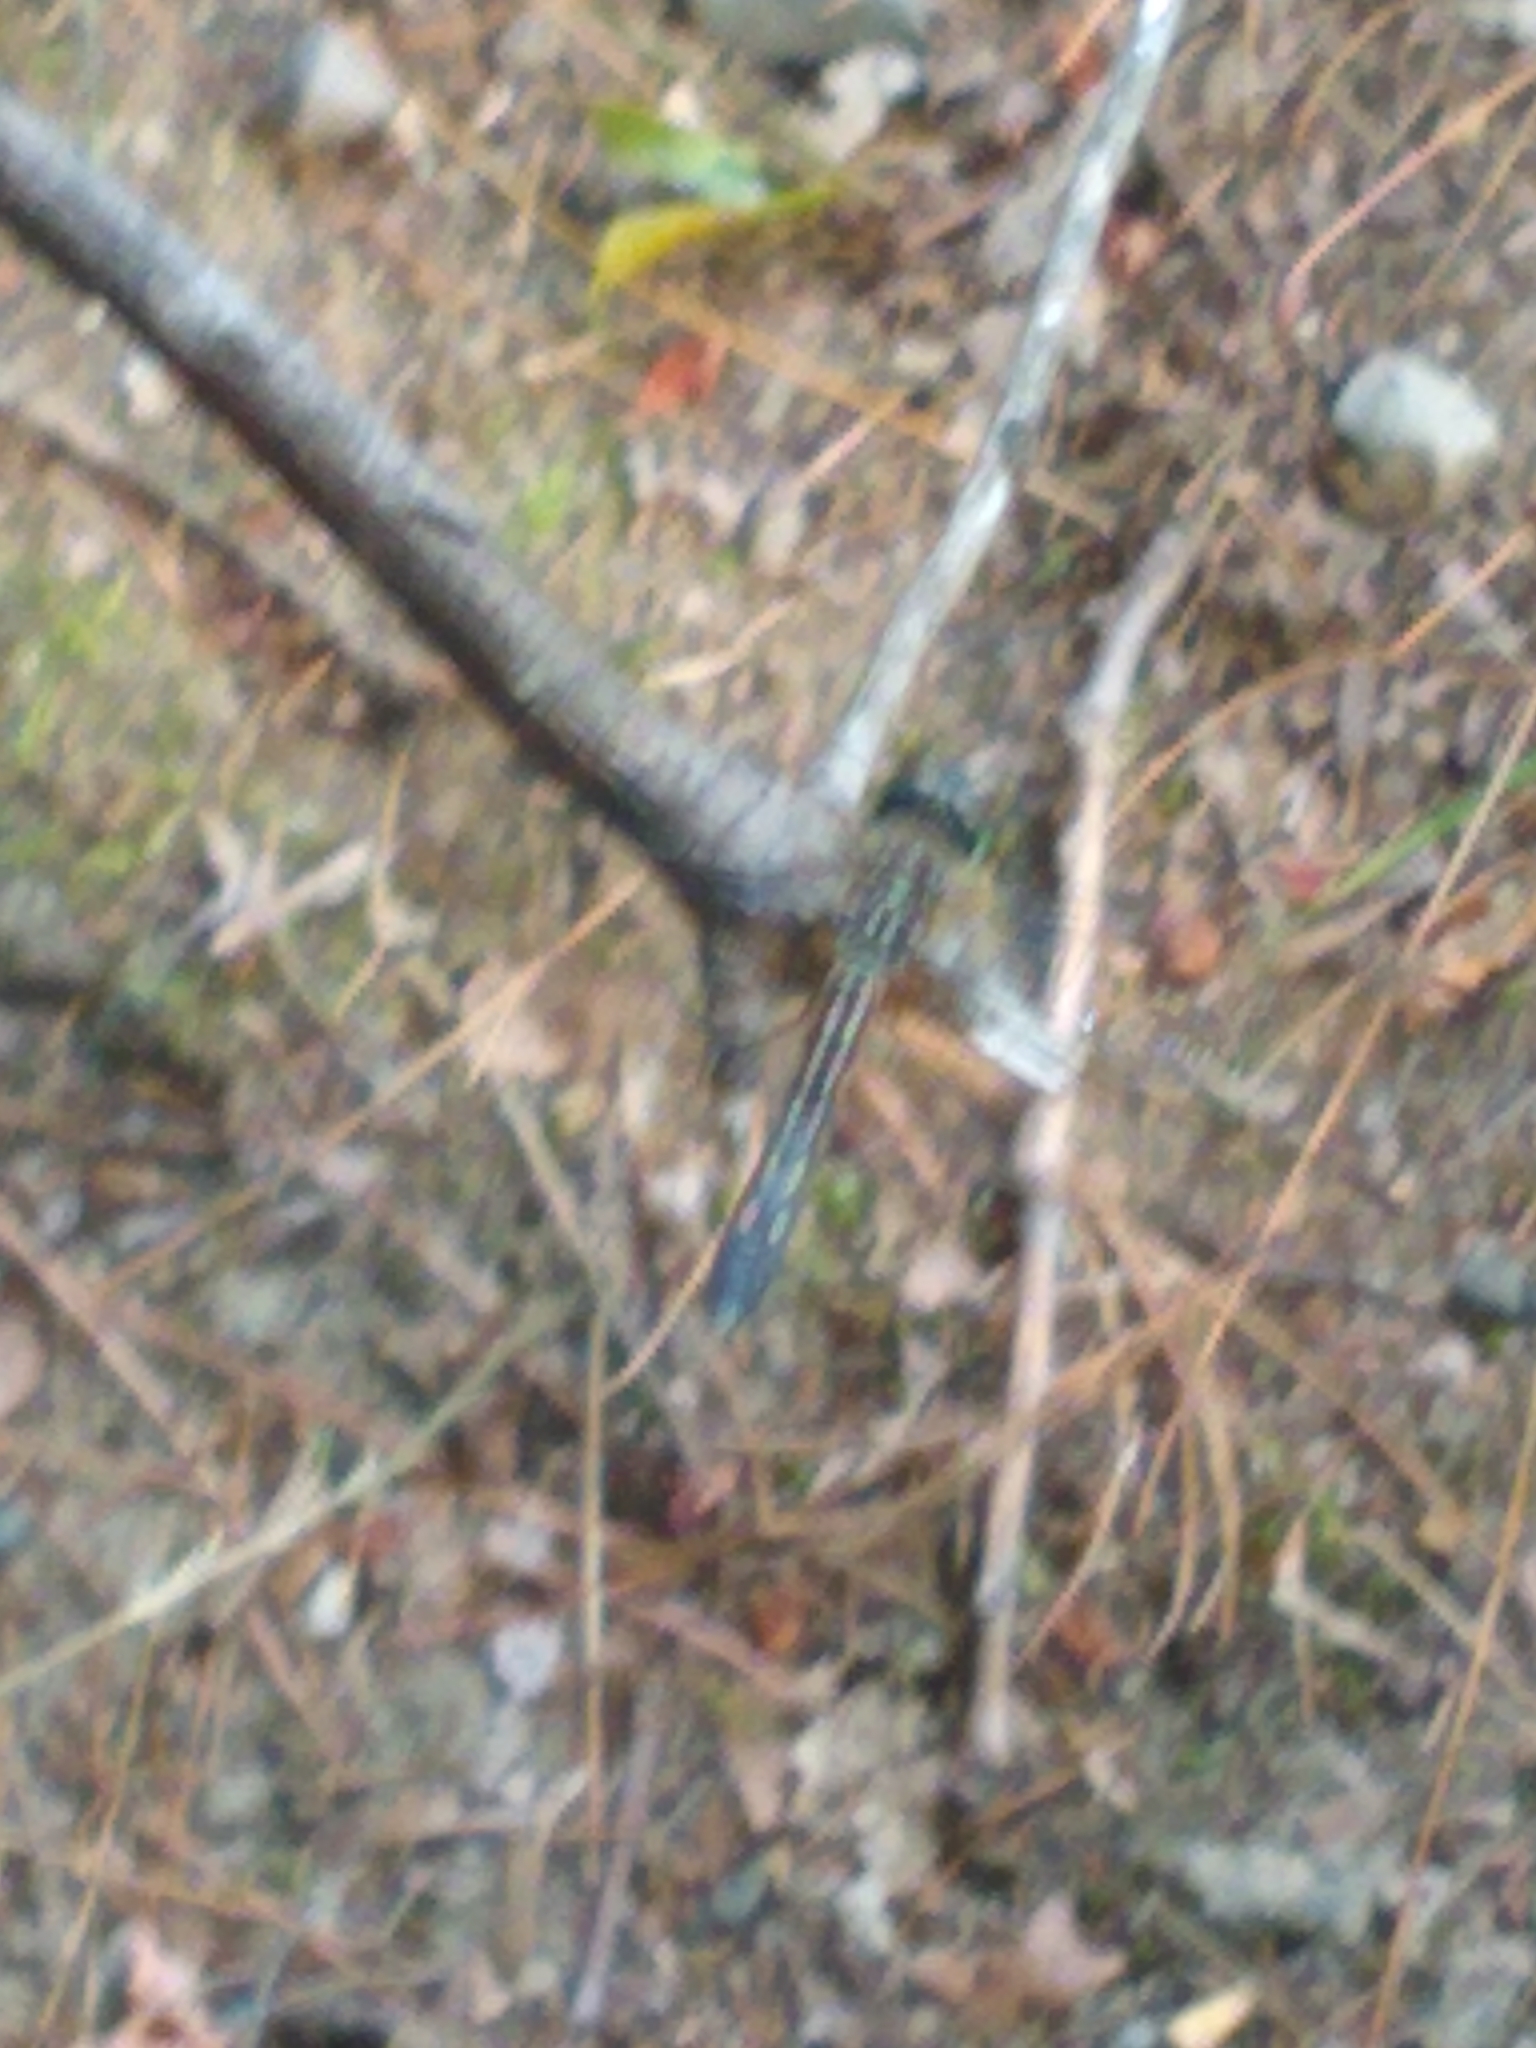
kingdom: Animalia
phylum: Arthropoda
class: Insecta
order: Odonata
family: Libellulidae
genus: Pachydiplax
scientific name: Pachydiplax longipennis
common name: Blue dasher
